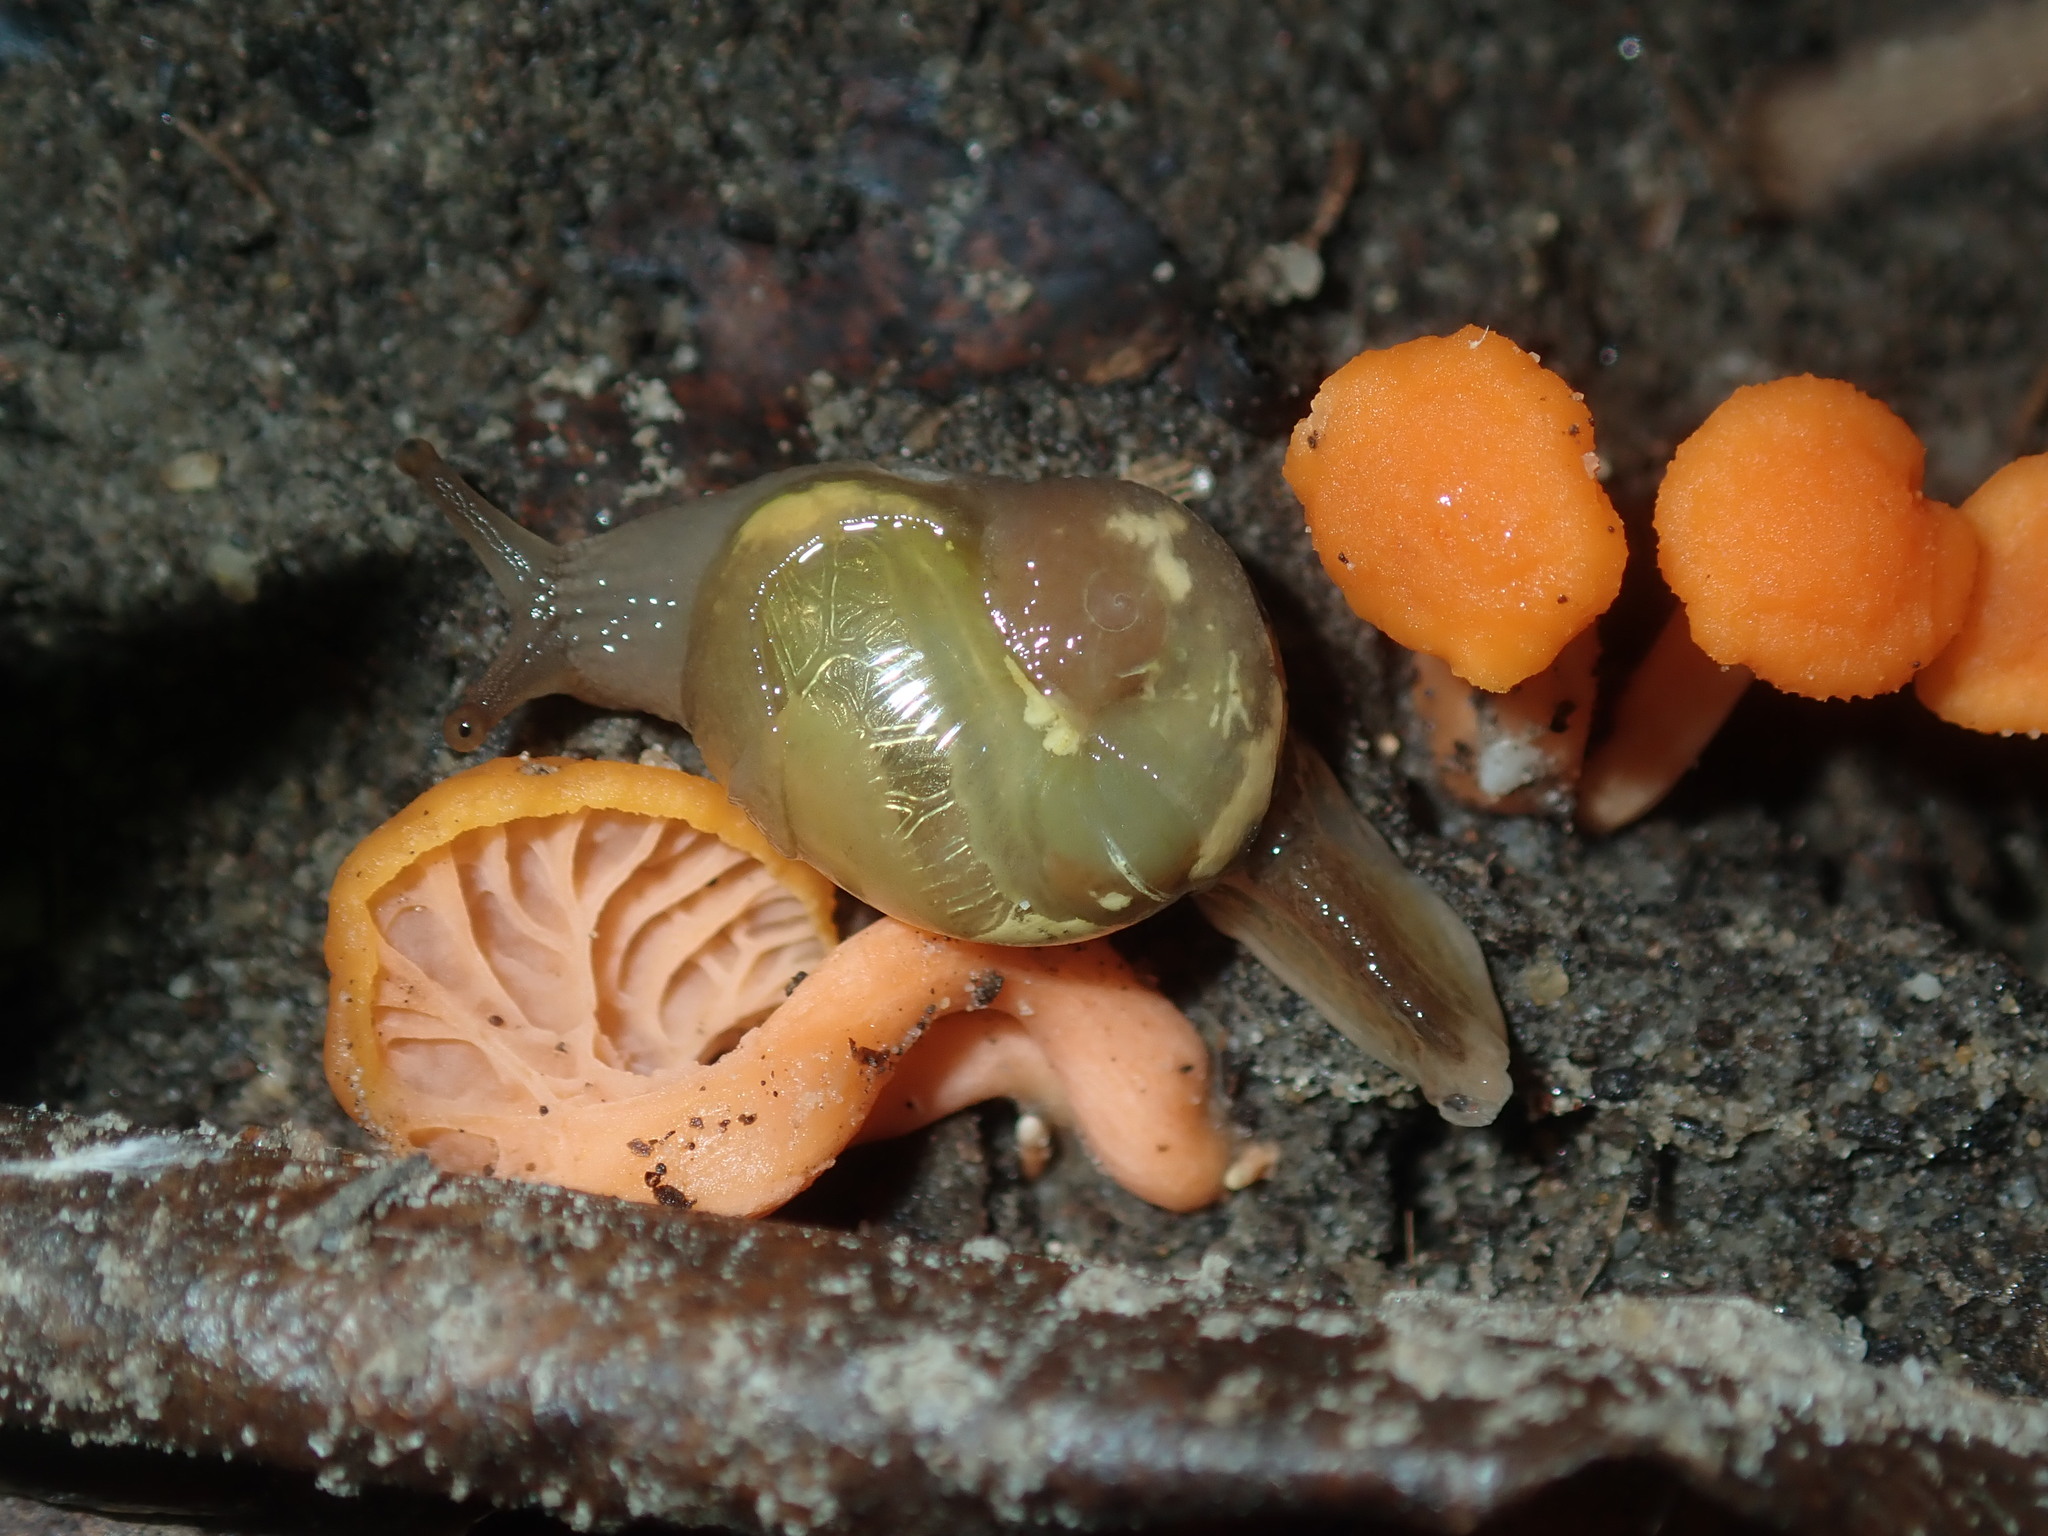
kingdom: Fungi
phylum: Basidiomycota
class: Agaricomycetes
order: Cantharellales
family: Hydnaceae
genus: Cantharellus
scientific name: Cantharellus
